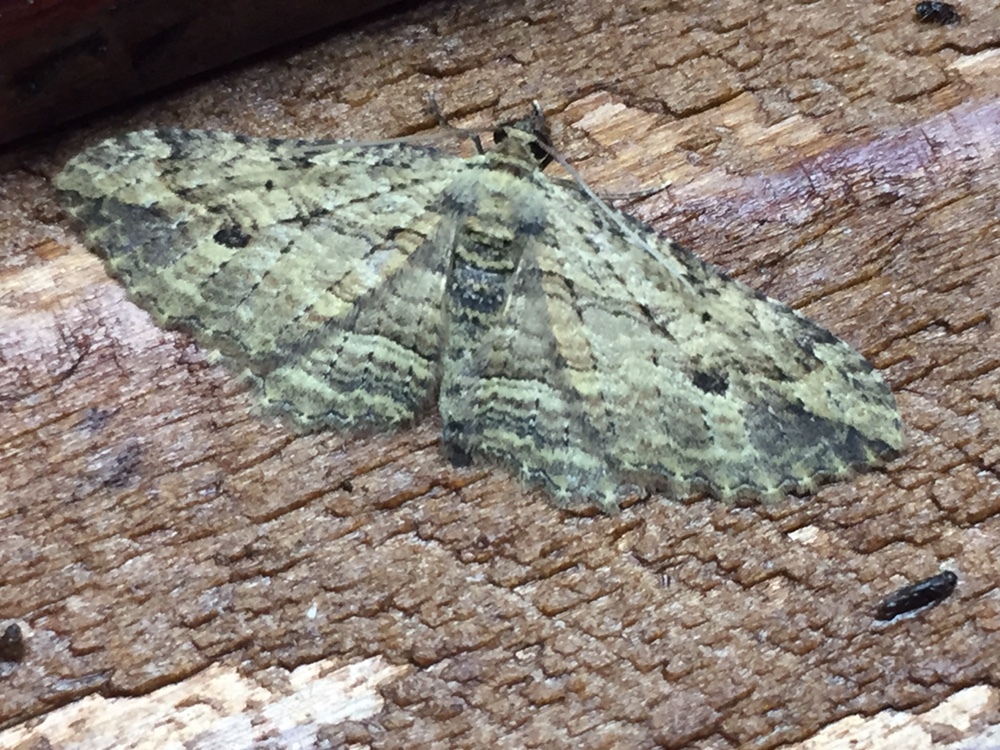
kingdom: Animalia
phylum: Arthropoda
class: Insecta
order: Lepidoptera
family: Geometridae
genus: Austrocidaria
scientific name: Austrocidaria bipartita
